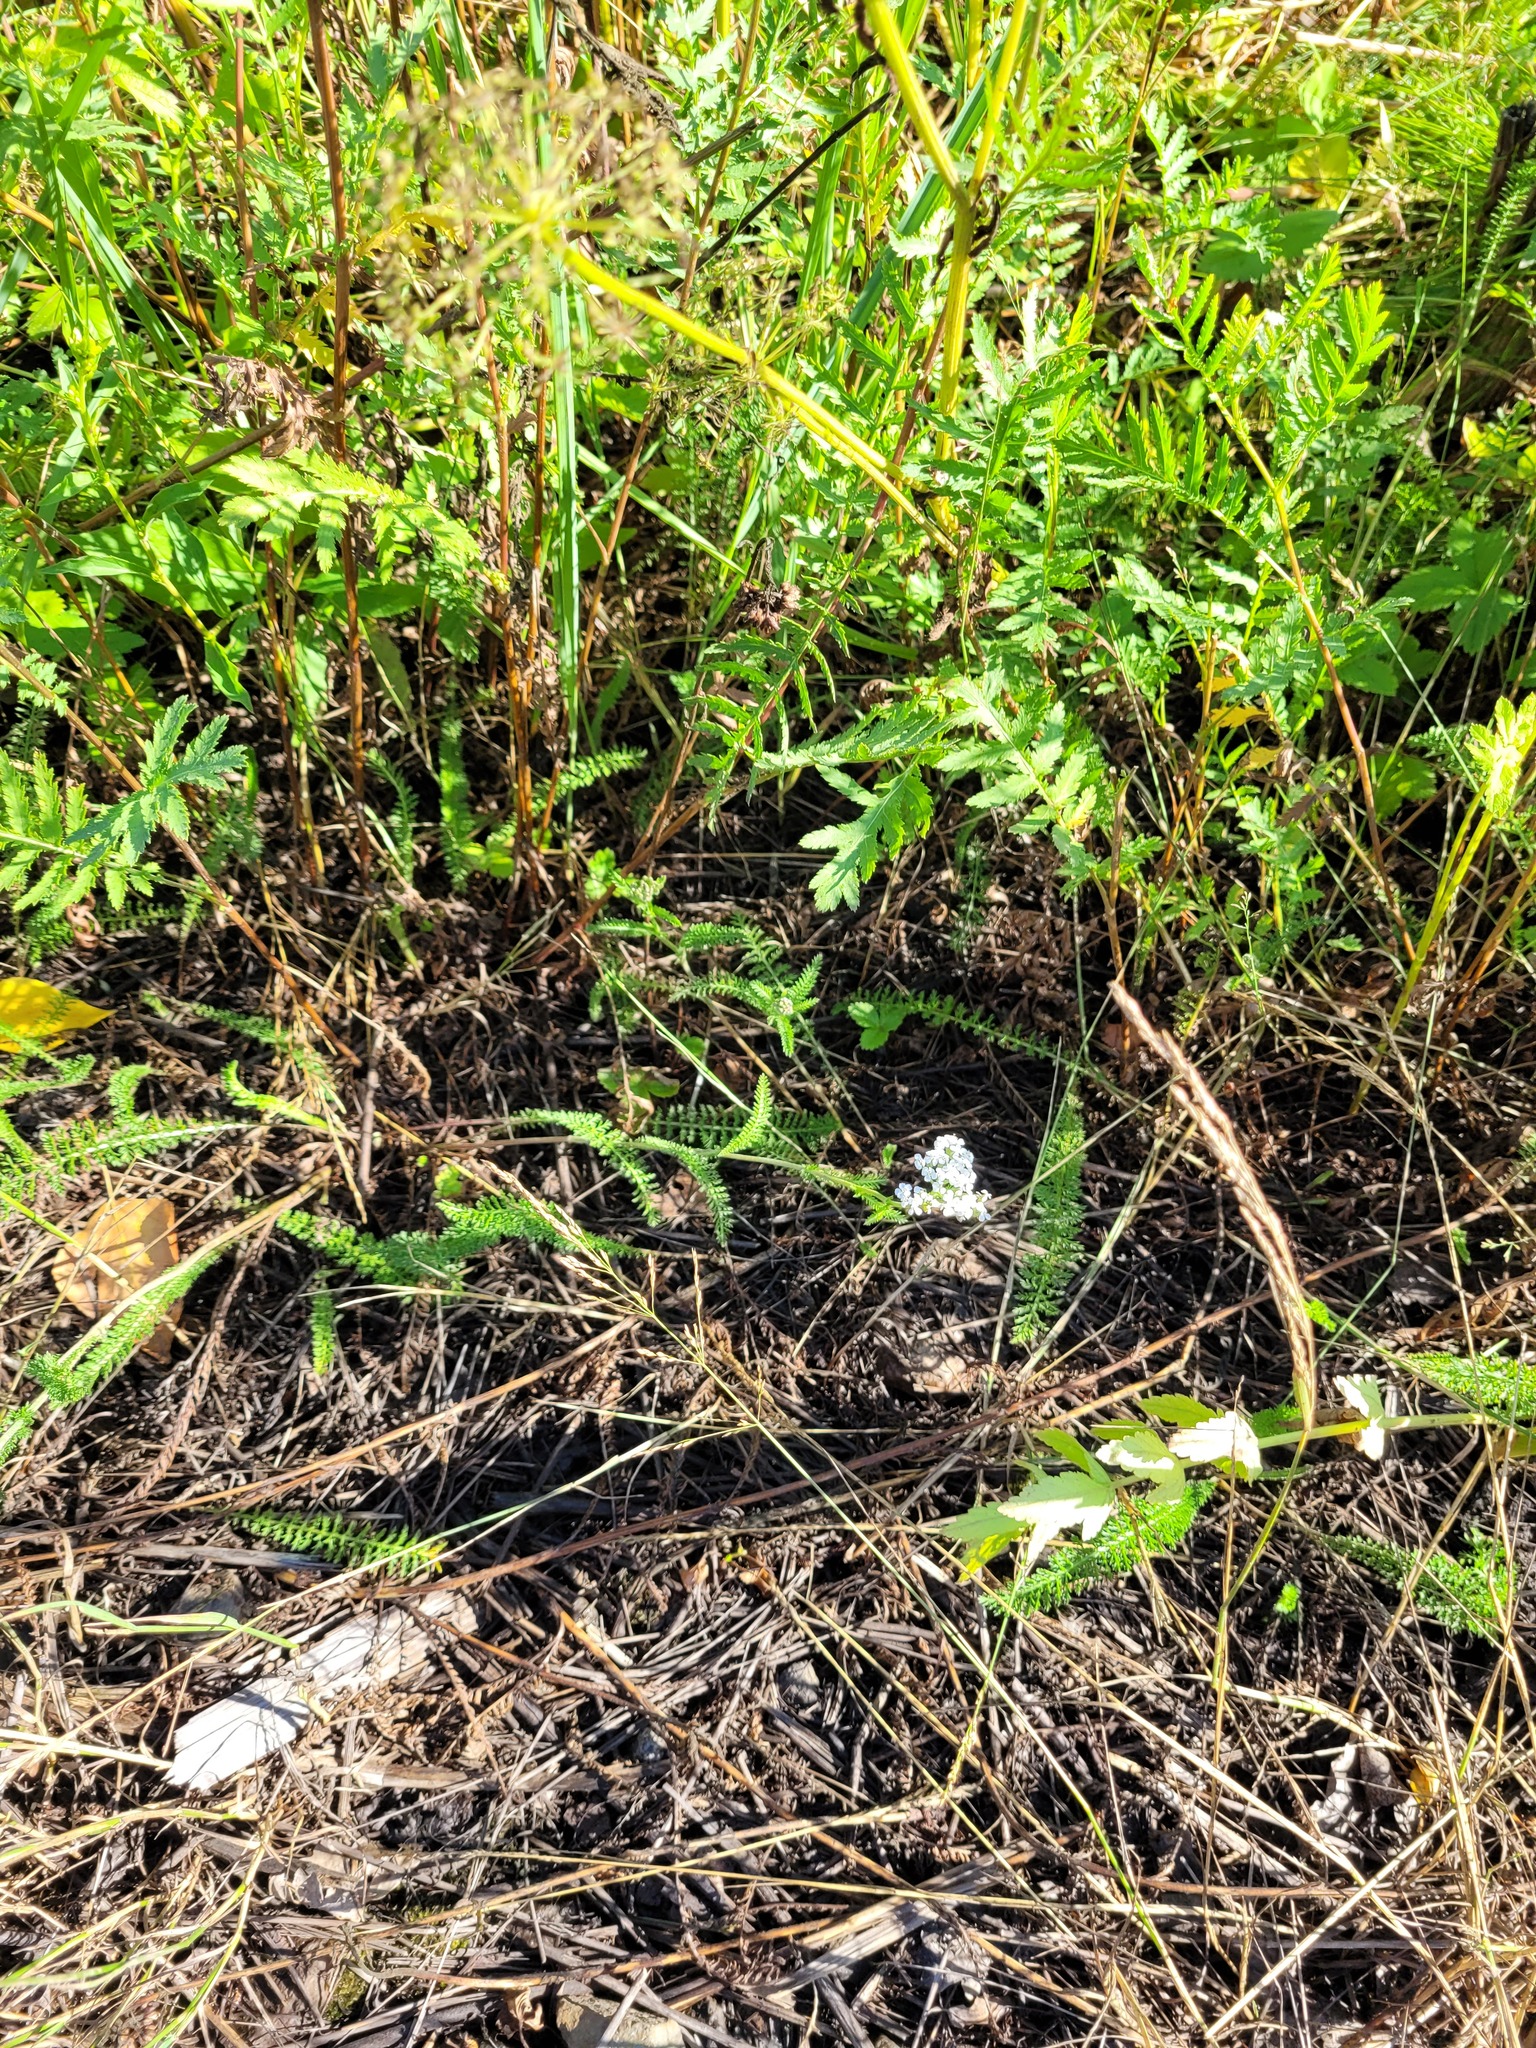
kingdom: Plantae
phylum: Tracheophyta
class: Magnoliopsida
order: Asterales
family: Asteraceae
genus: Achillea
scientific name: Achillea millefolium
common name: Yarrow
